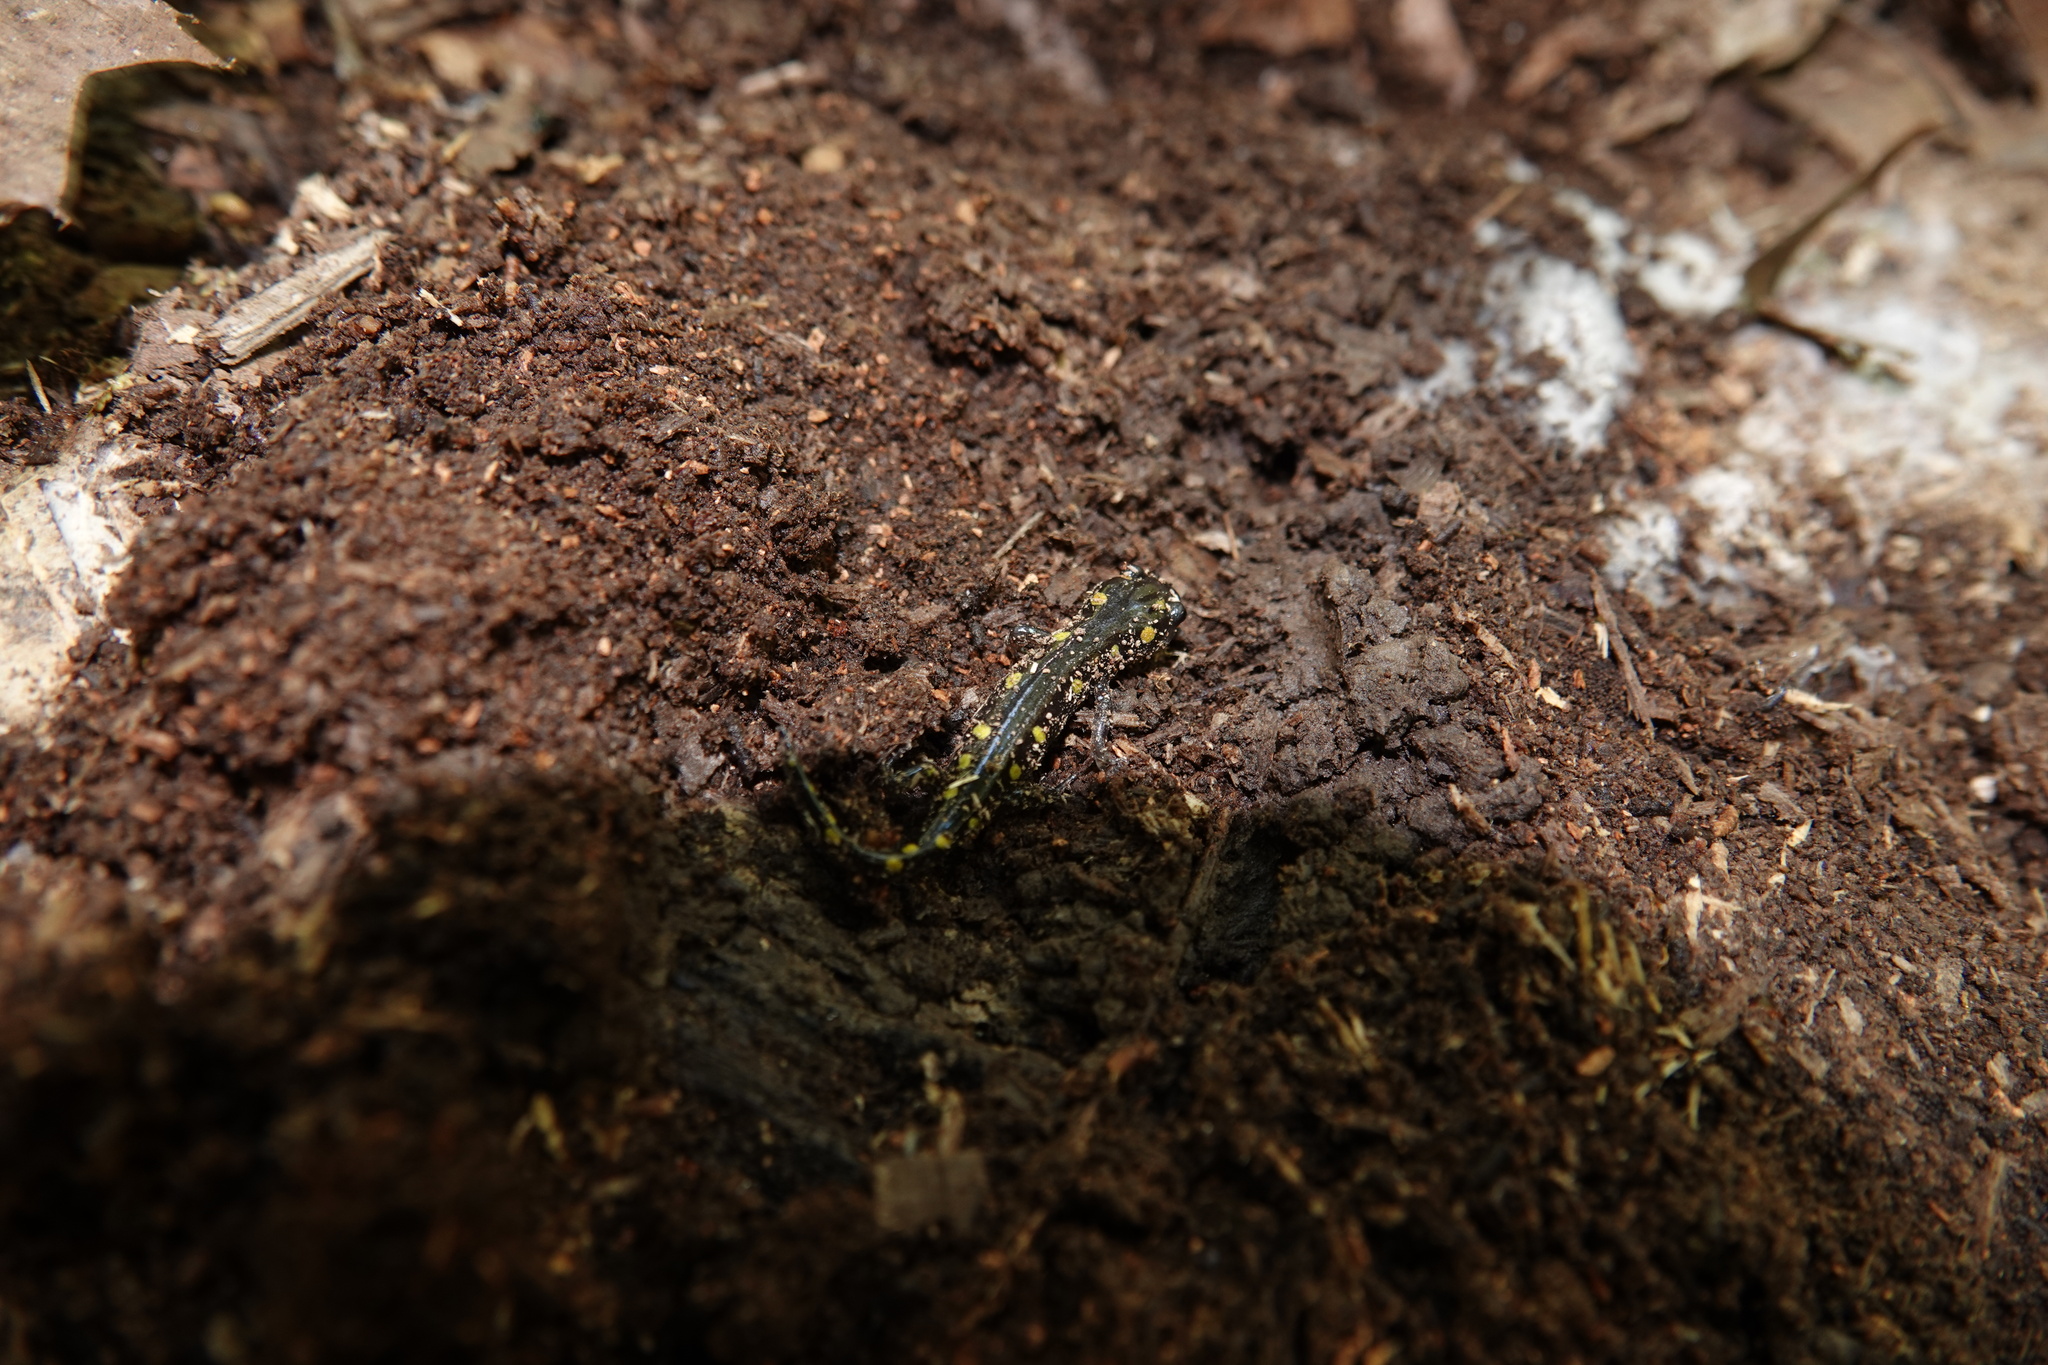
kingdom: Animalia
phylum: Chordata
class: Amphibia
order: Caudata
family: Ambystomatidae
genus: Ambystoma
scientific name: Ambystoma maculatum
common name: Spotted salamander
